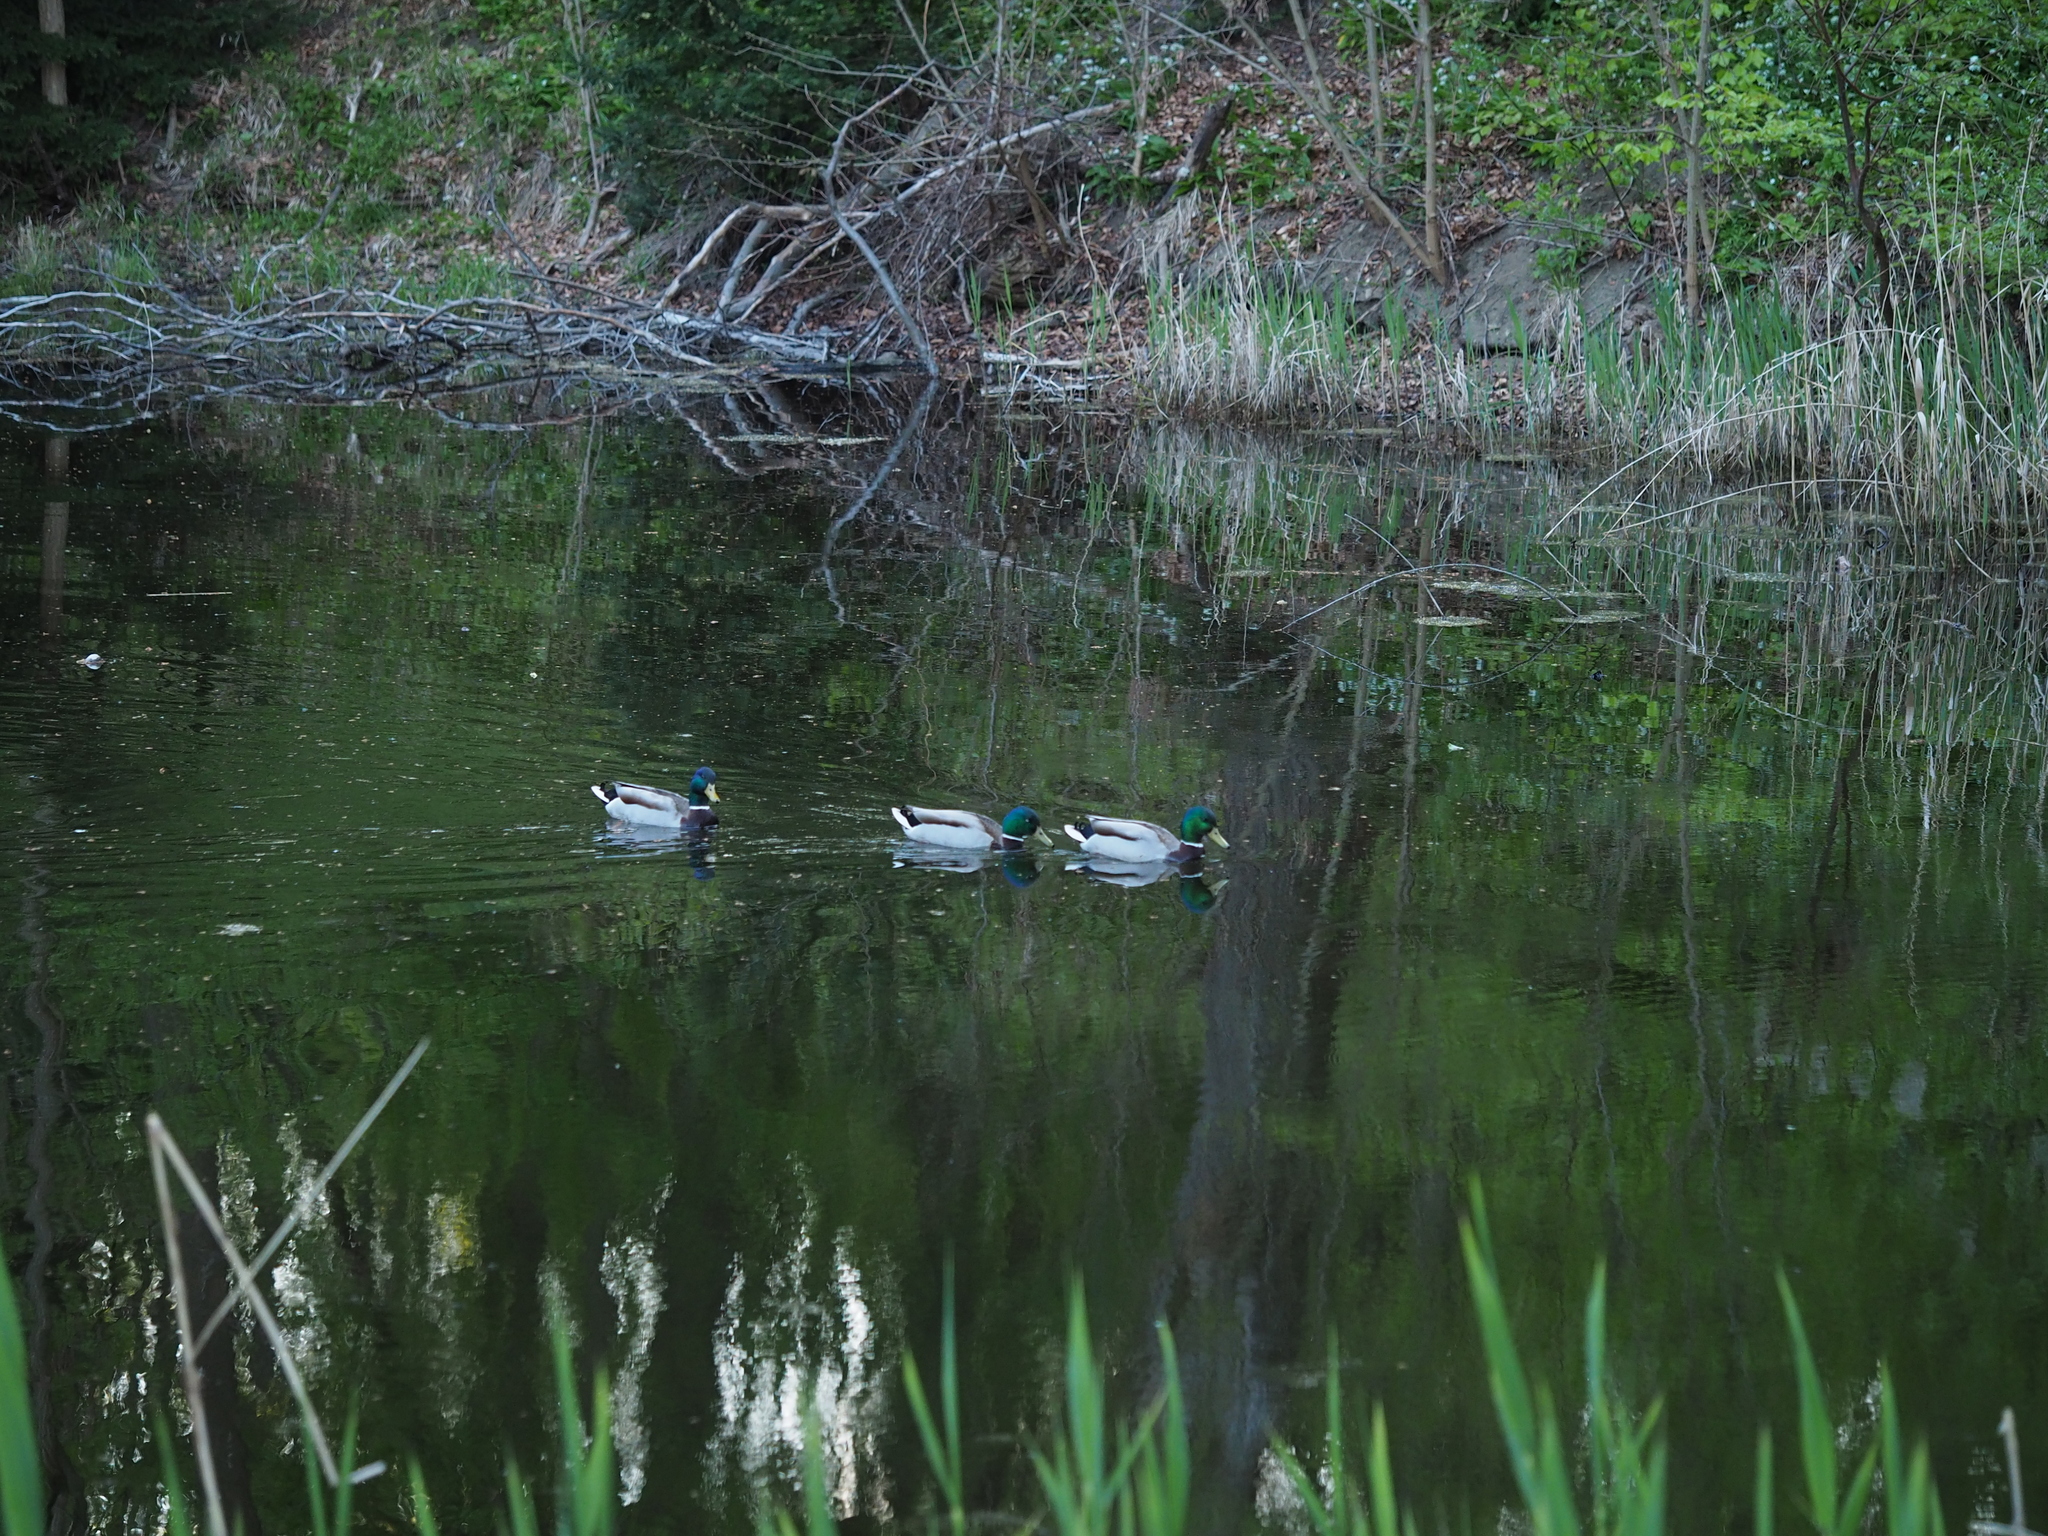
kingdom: Animalia
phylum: Chordata
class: Aves
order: Anseriformes
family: Anatidae
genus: Anas
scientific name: Anas platyrhynchos
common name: Mallard
